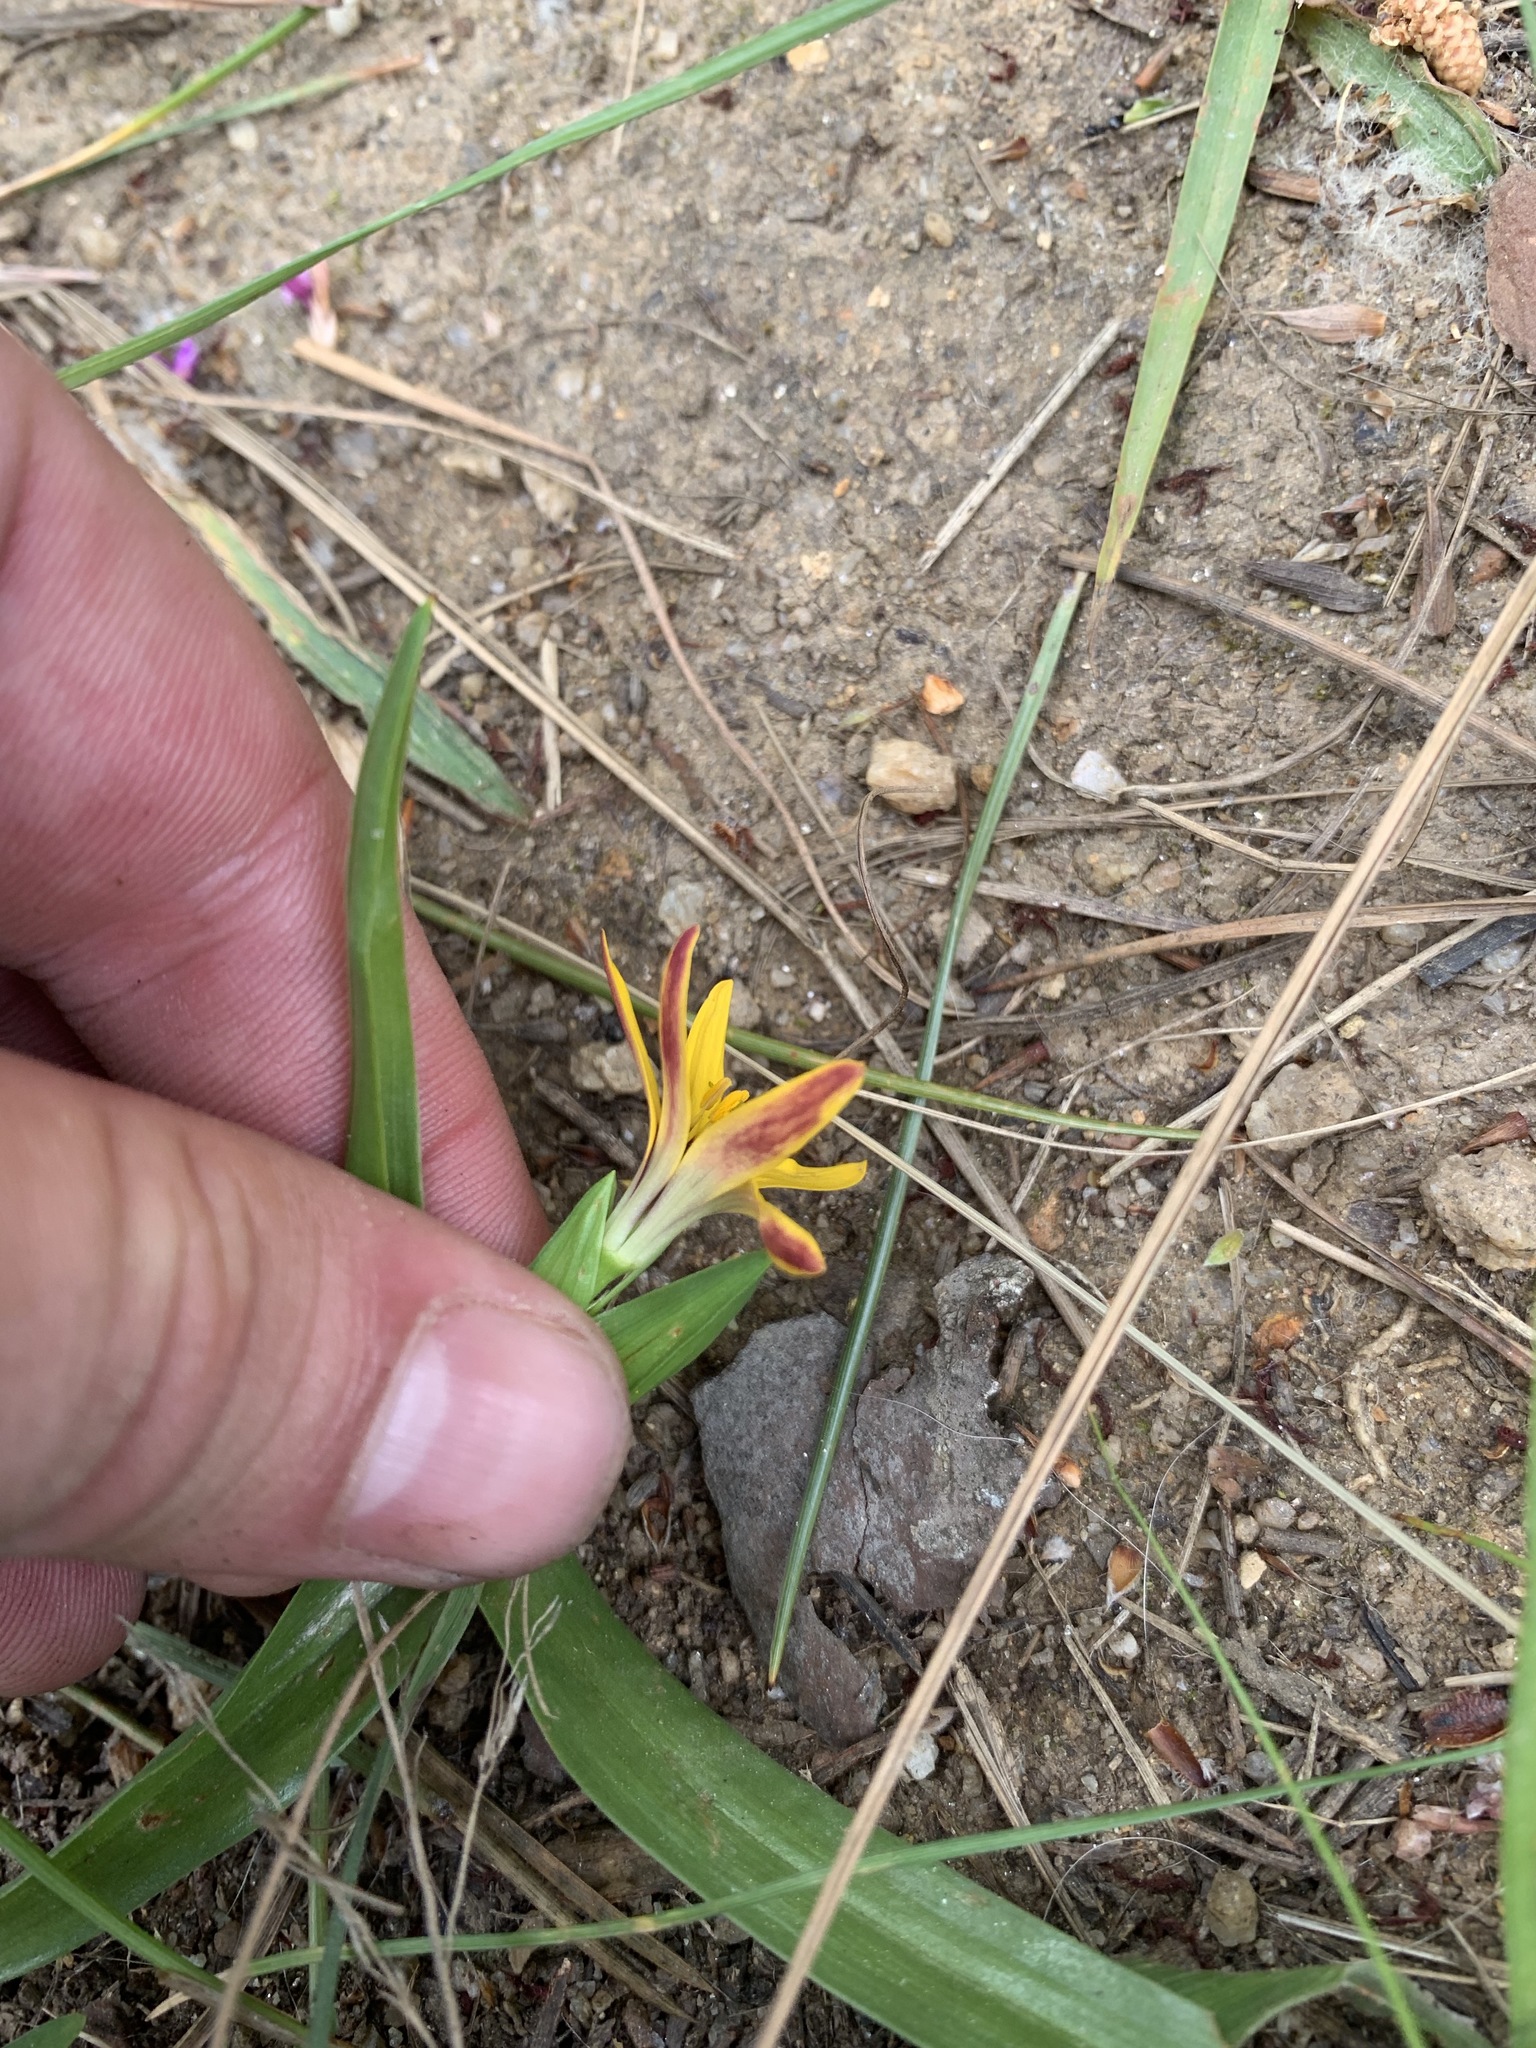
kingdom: Plantae
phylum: Tracheophyta
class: Liliopsida
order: Liliales
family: Colchicaceae
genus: Baeometra
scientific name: Baeometra uniflora
